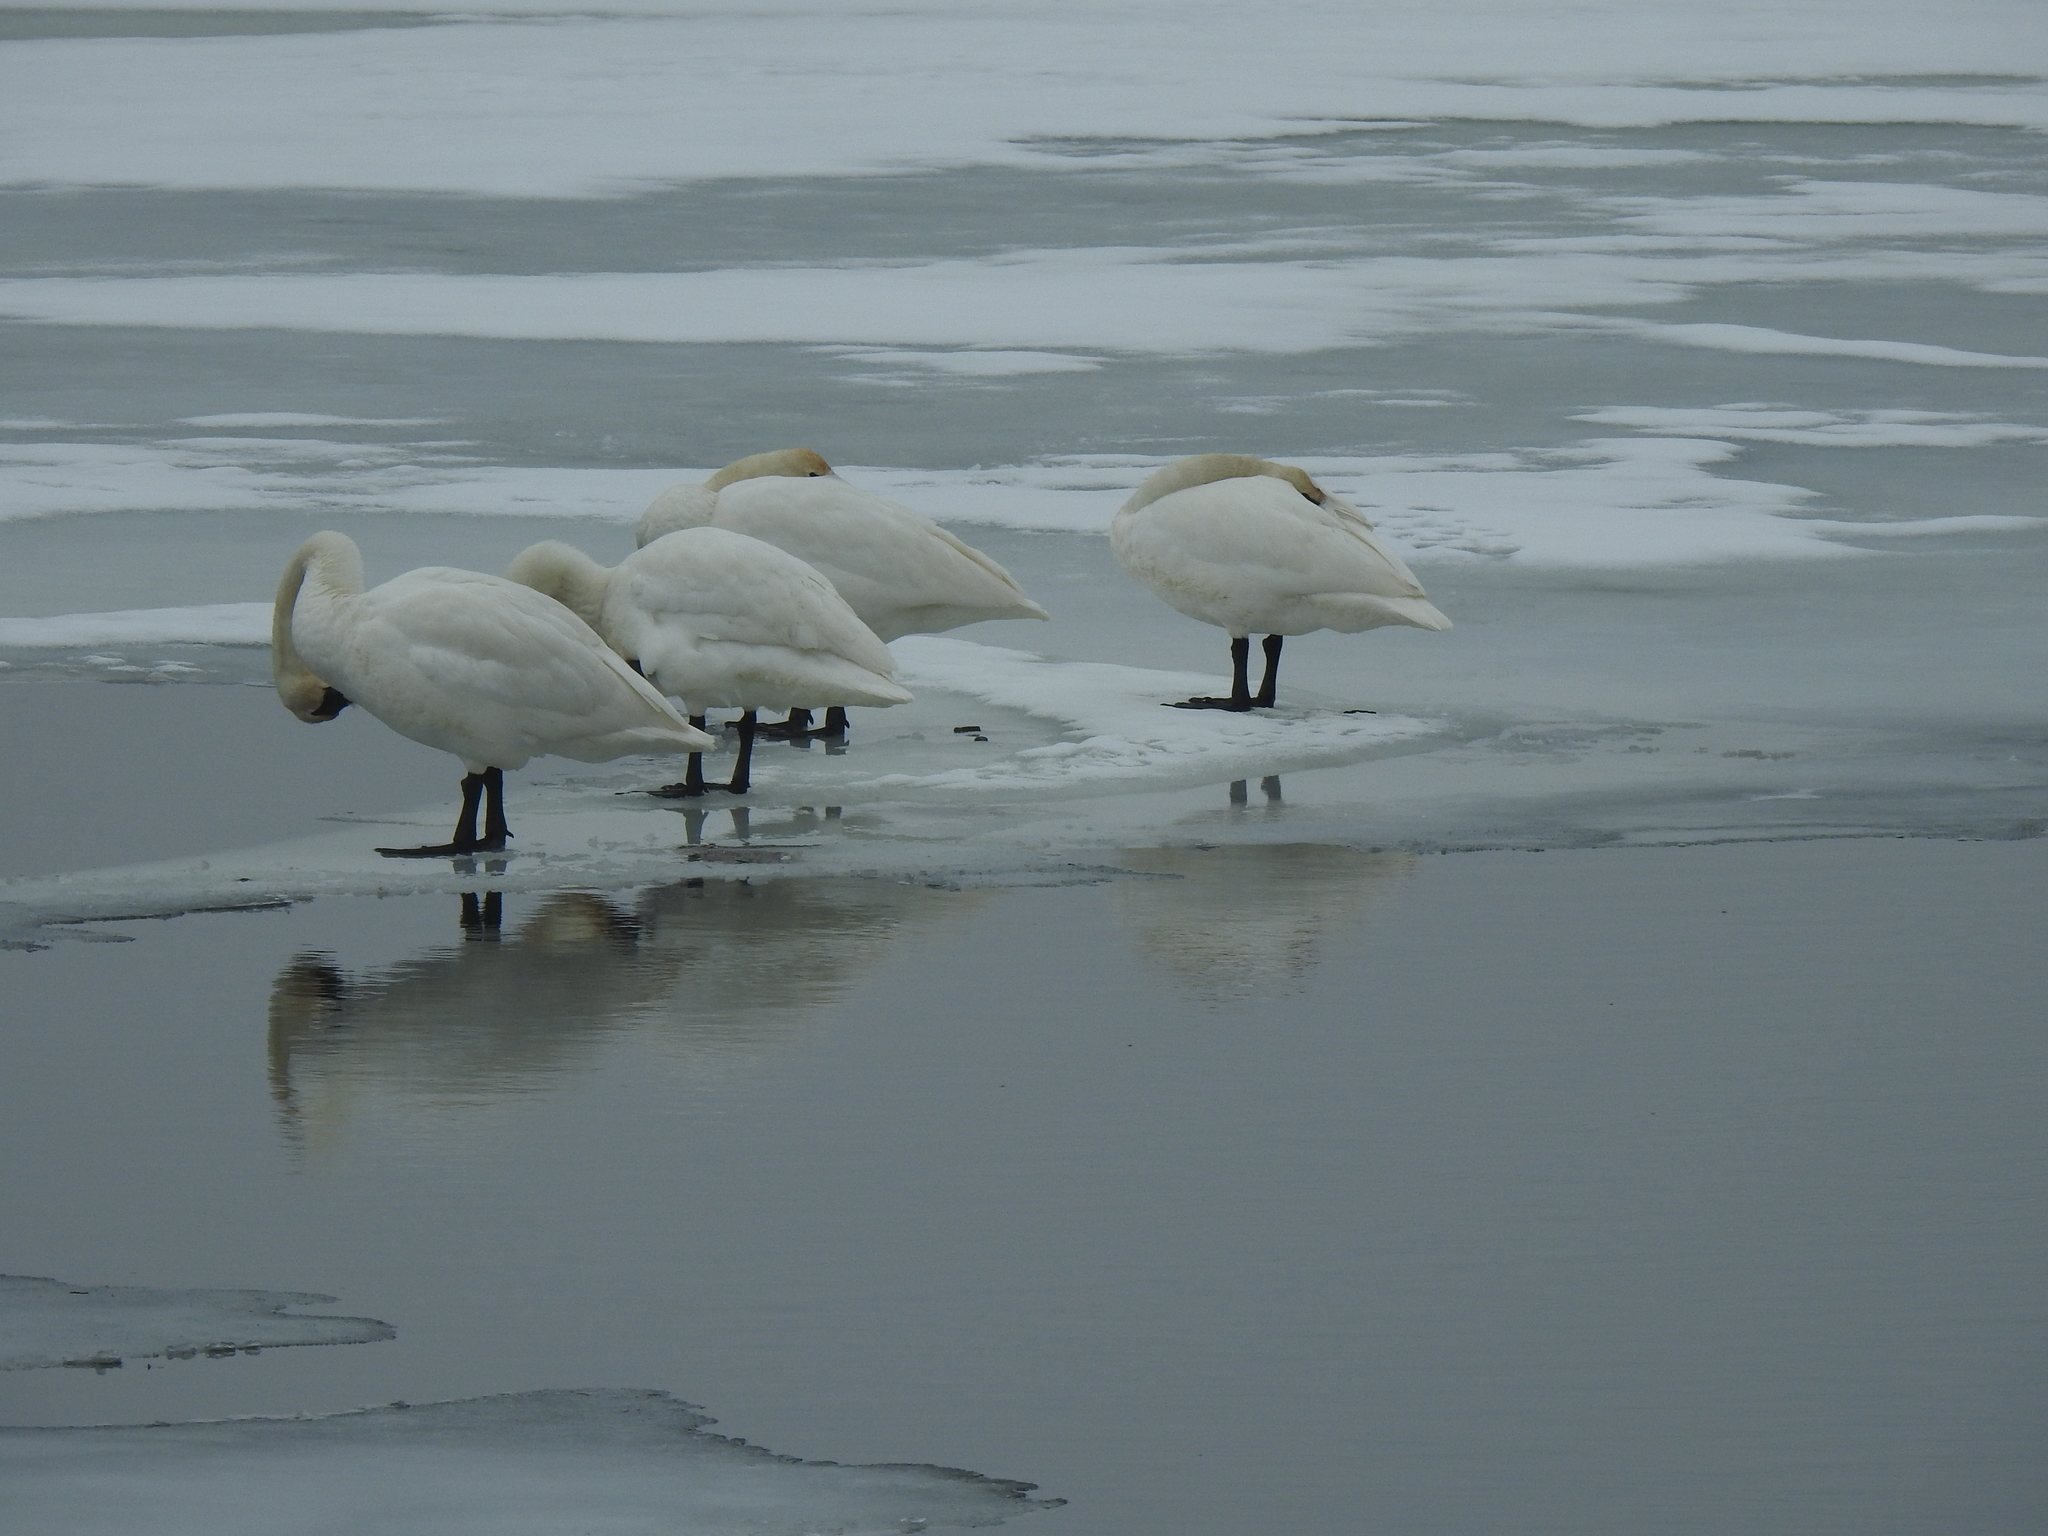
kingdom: Animalia
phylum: Chordata
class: Aves
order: Anseriformes
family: Anatidae
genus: Cygnus
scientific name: Cygnus buccinator
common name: Trumpeter swan
